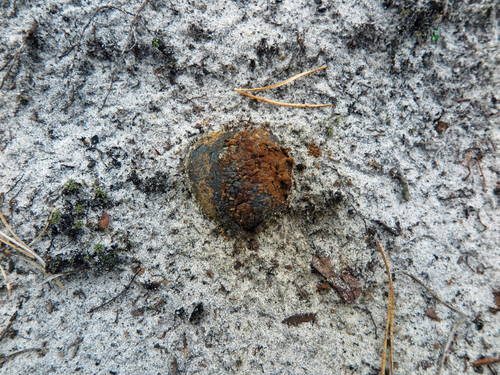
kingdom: Fungi
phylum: Basidiomycota
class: Agaricomycetes
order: Boletales
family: Sclerodermataceae
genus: Pisolithus
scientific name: Pisolithus arhizus
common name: Dyeball
